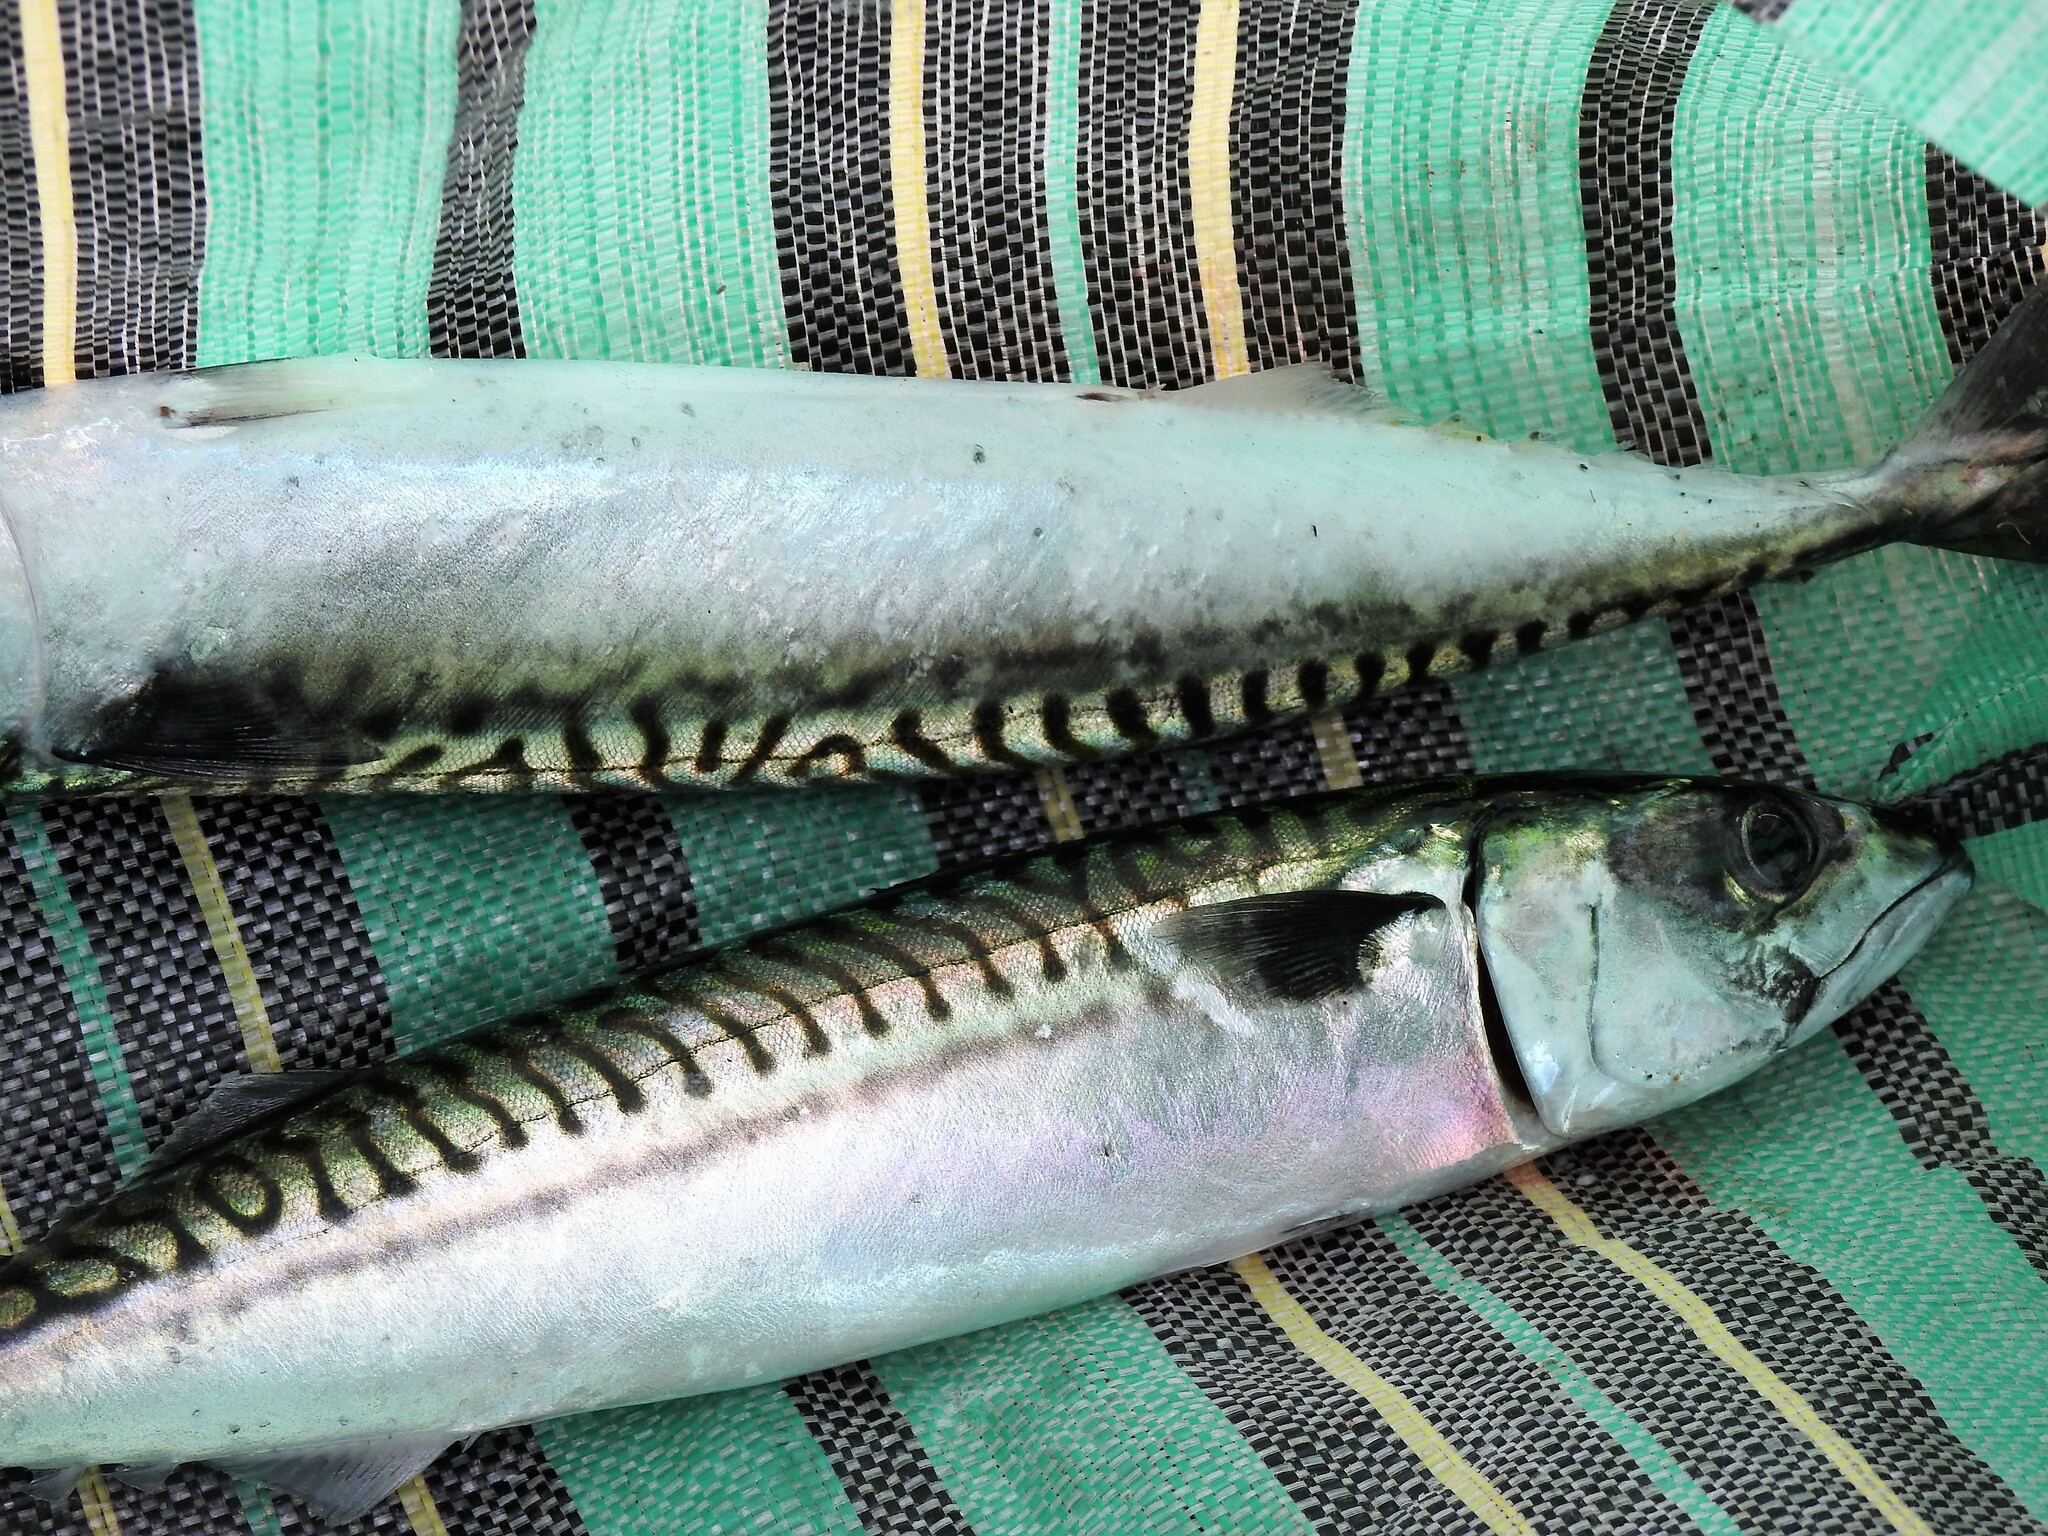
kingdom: Animalia
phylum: Chordata
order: Perciformes
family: Scombridae
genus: Scomber
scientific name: Scomber scombrus
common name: Mackerel
